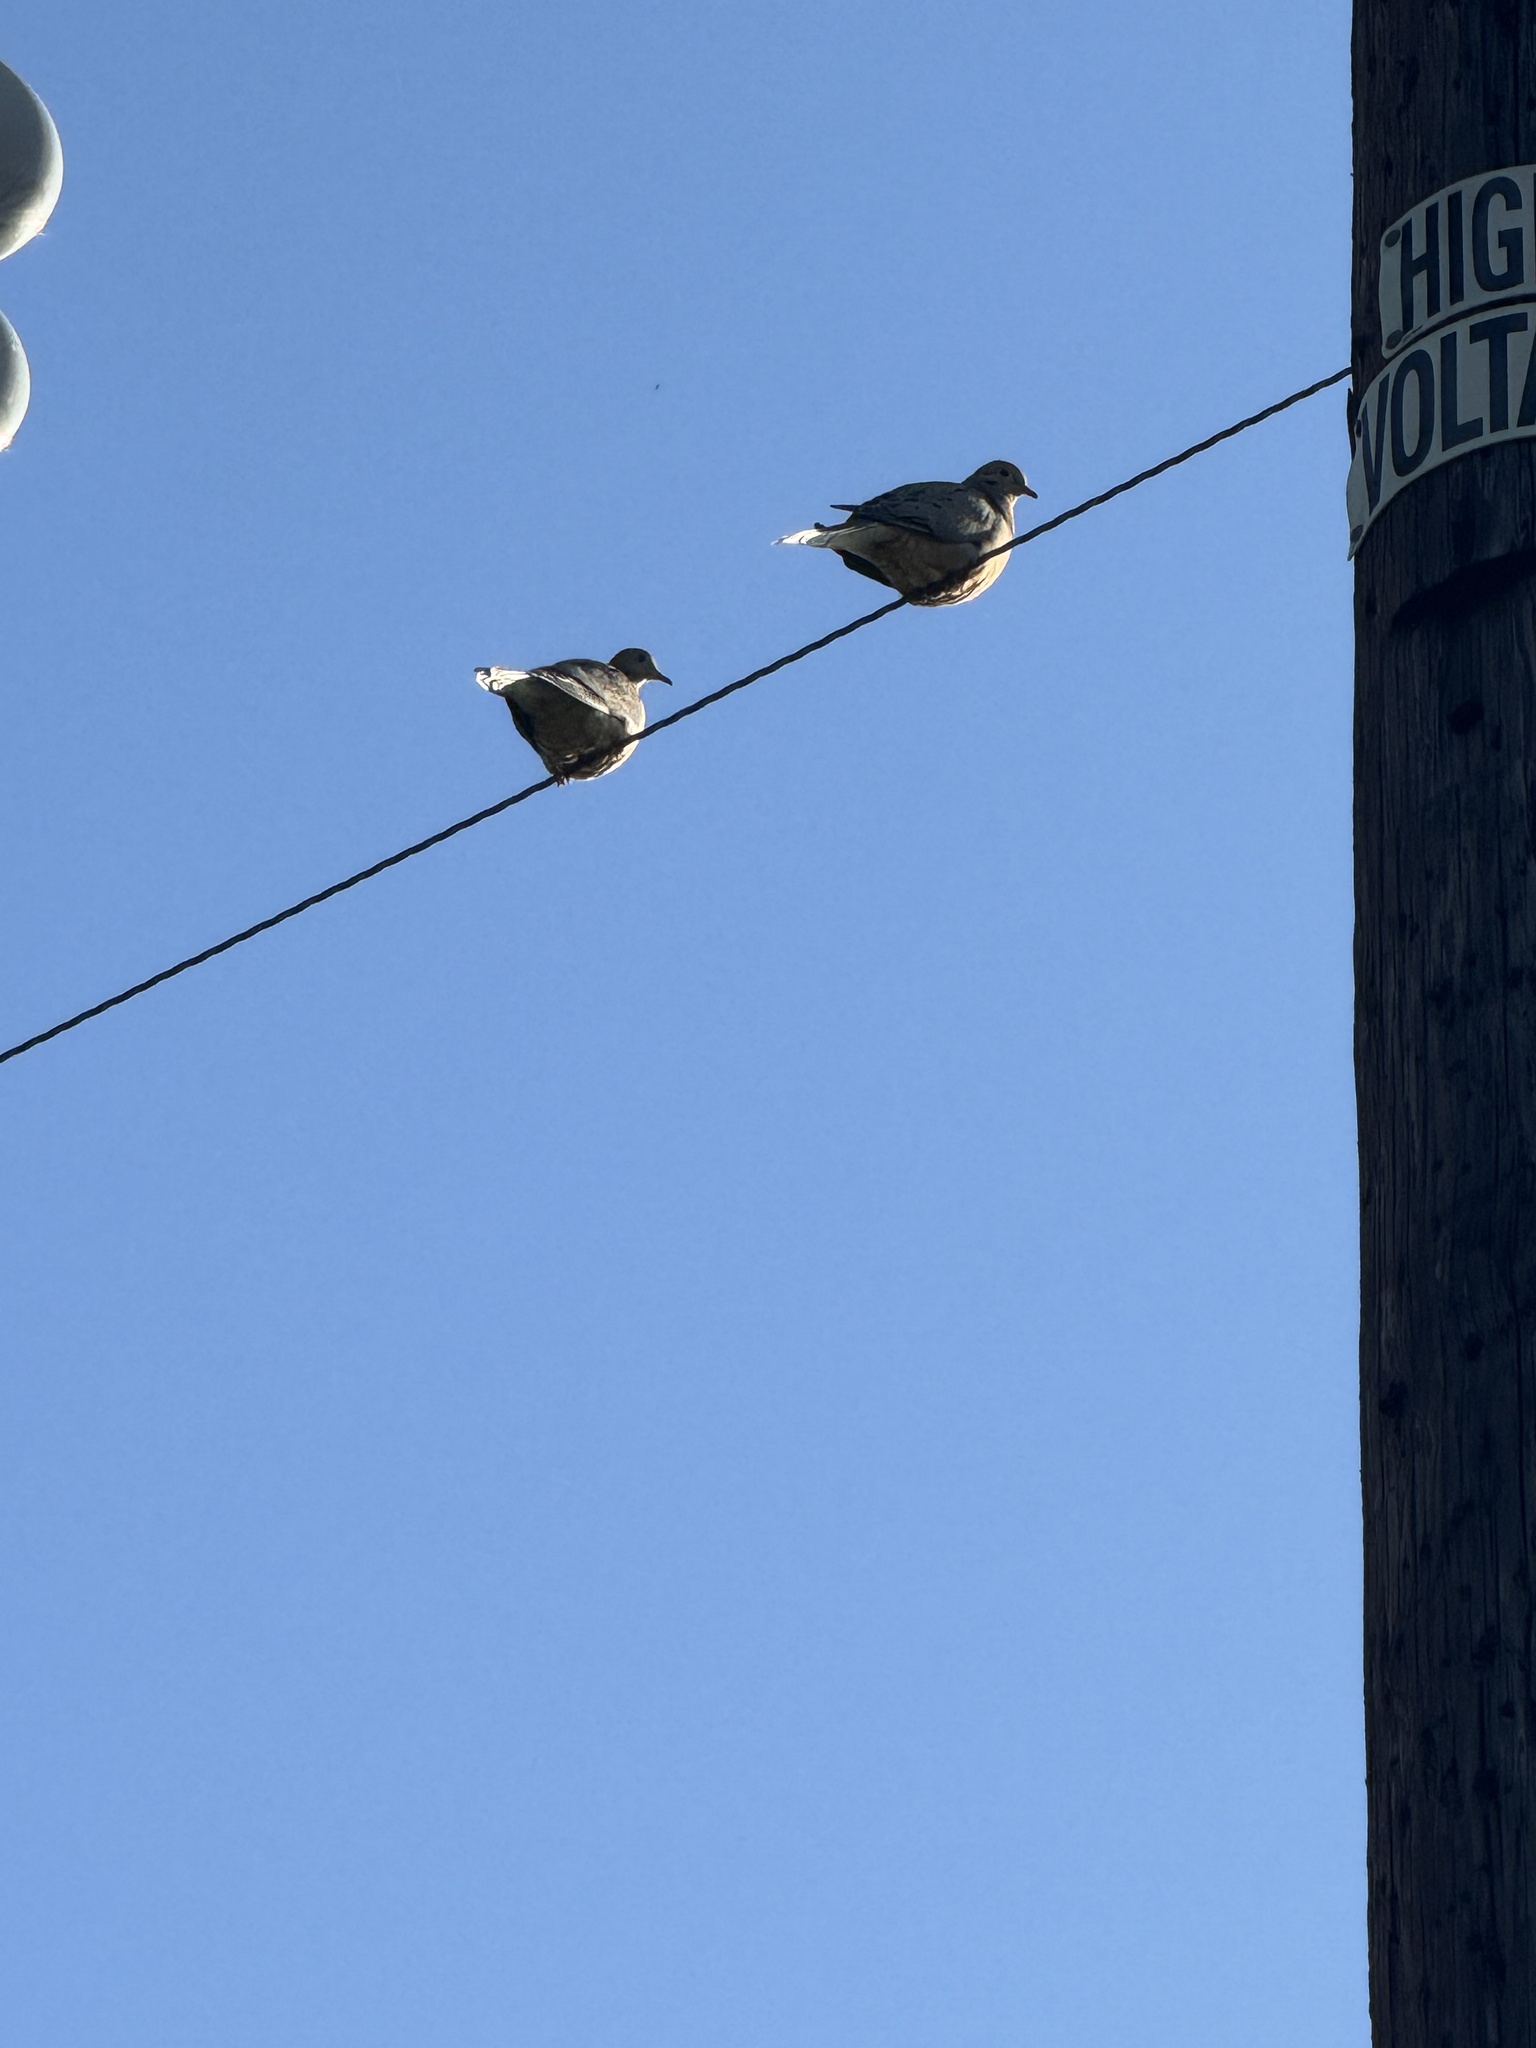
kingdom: Animalia
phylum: Chordata
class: Aves
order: Columbiformes
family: Columbidae
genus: Zenaida
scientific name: Zenaida macroura
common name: Mourning dove
